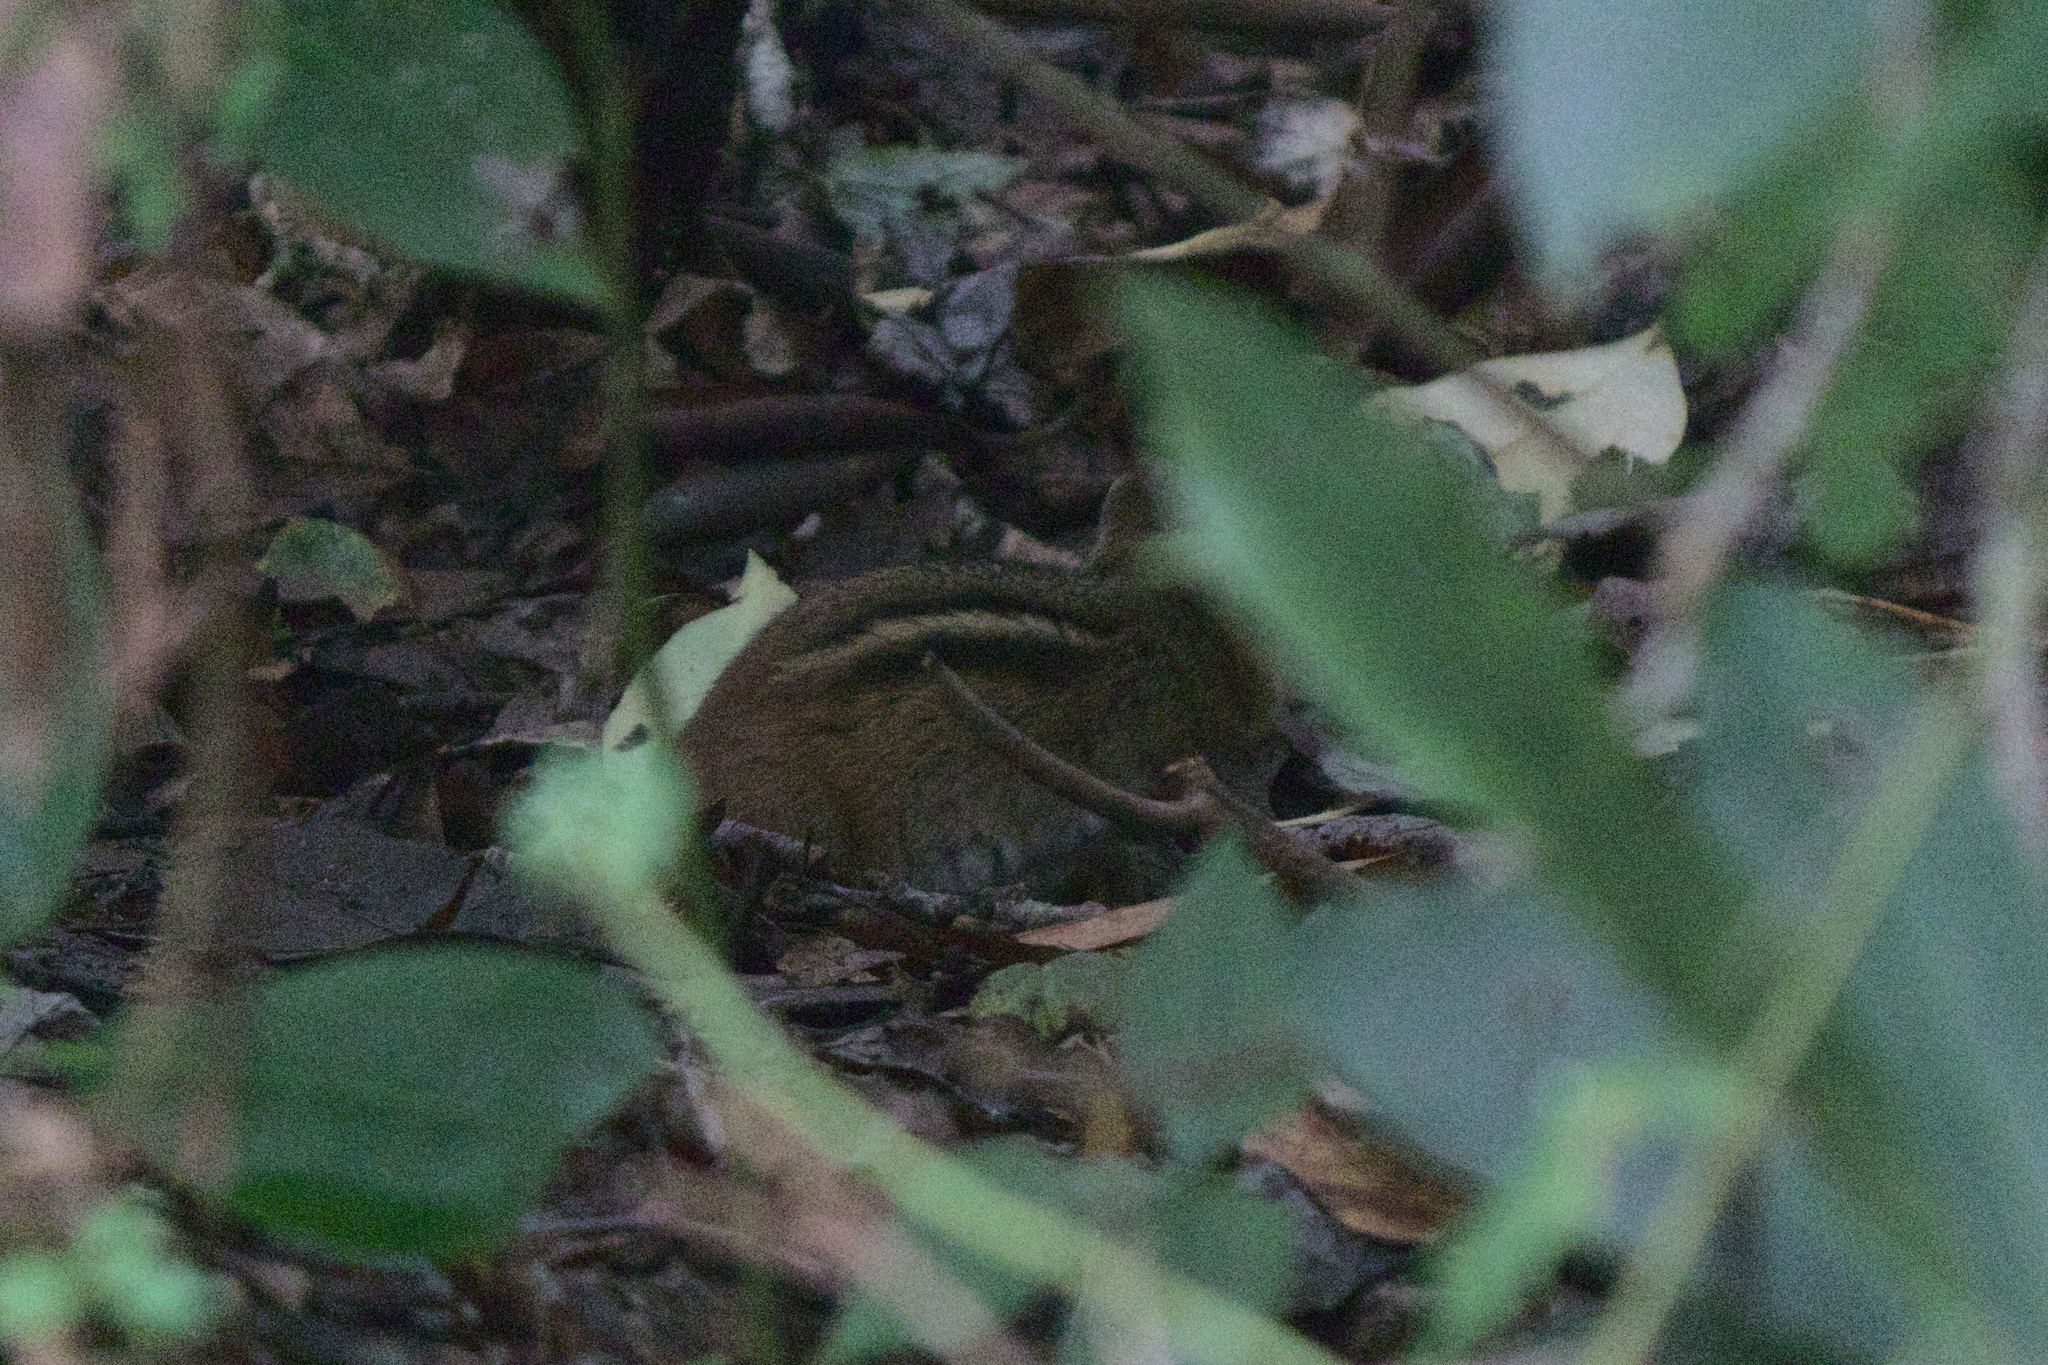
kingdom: Animalia
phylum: Chordata
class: Mammalia
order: Rodentia
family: Sciuridae
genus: Tamias
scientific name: Tamias striatus
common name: Eastern chipmunk
